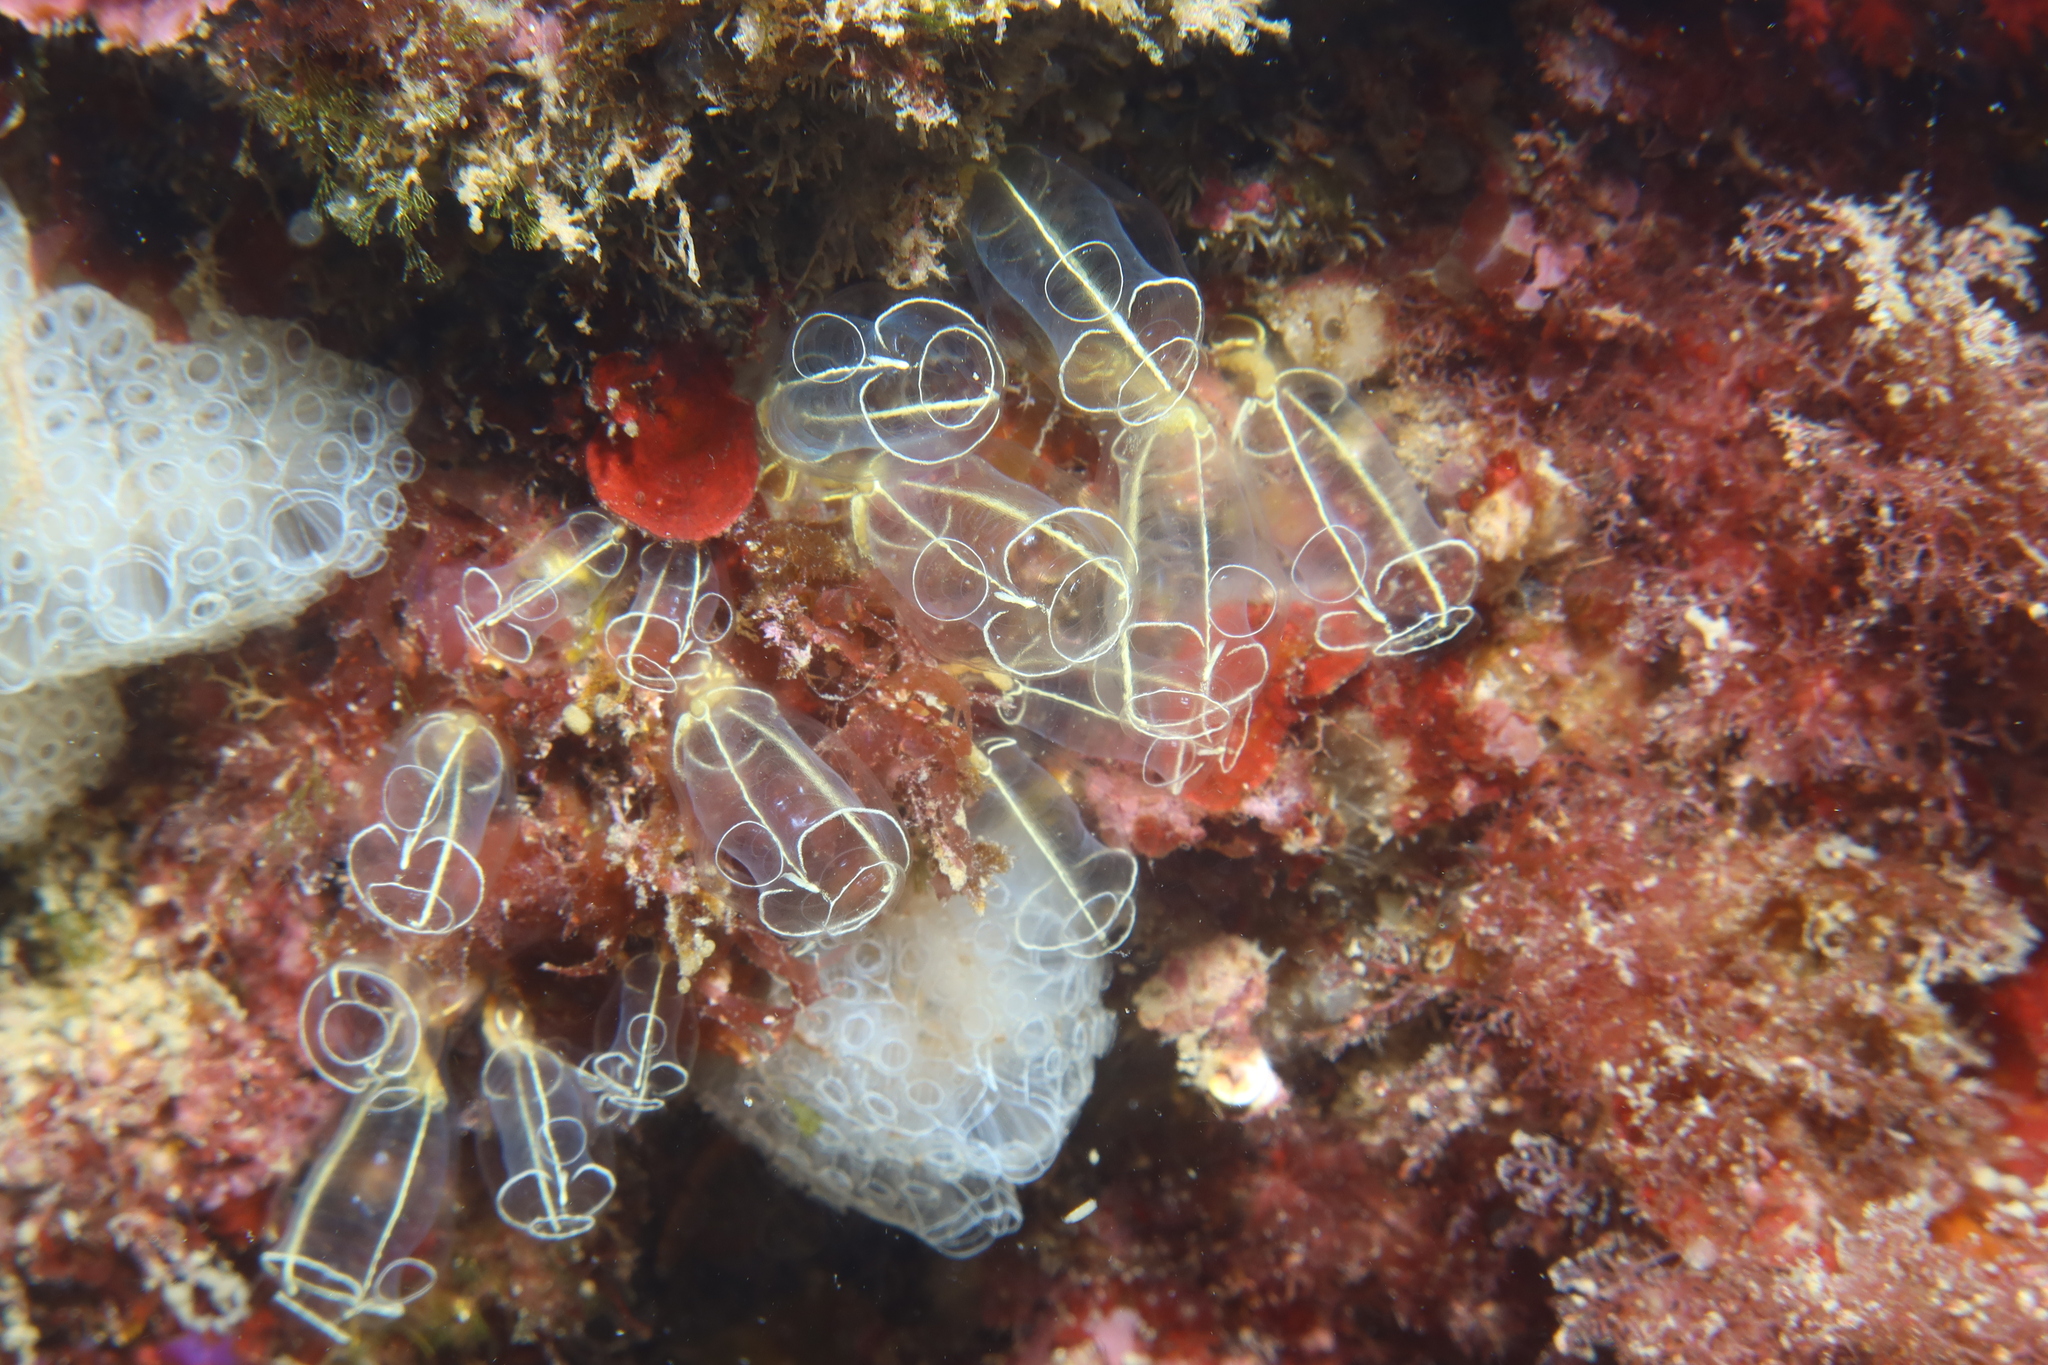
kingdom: Animalia
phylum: Chordata
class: Ascidiacea
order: Aplousobranchia
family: Clavelinidae
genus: Clavelina
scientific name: Clavelina lepadiformis
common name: Light bulb tunicate
